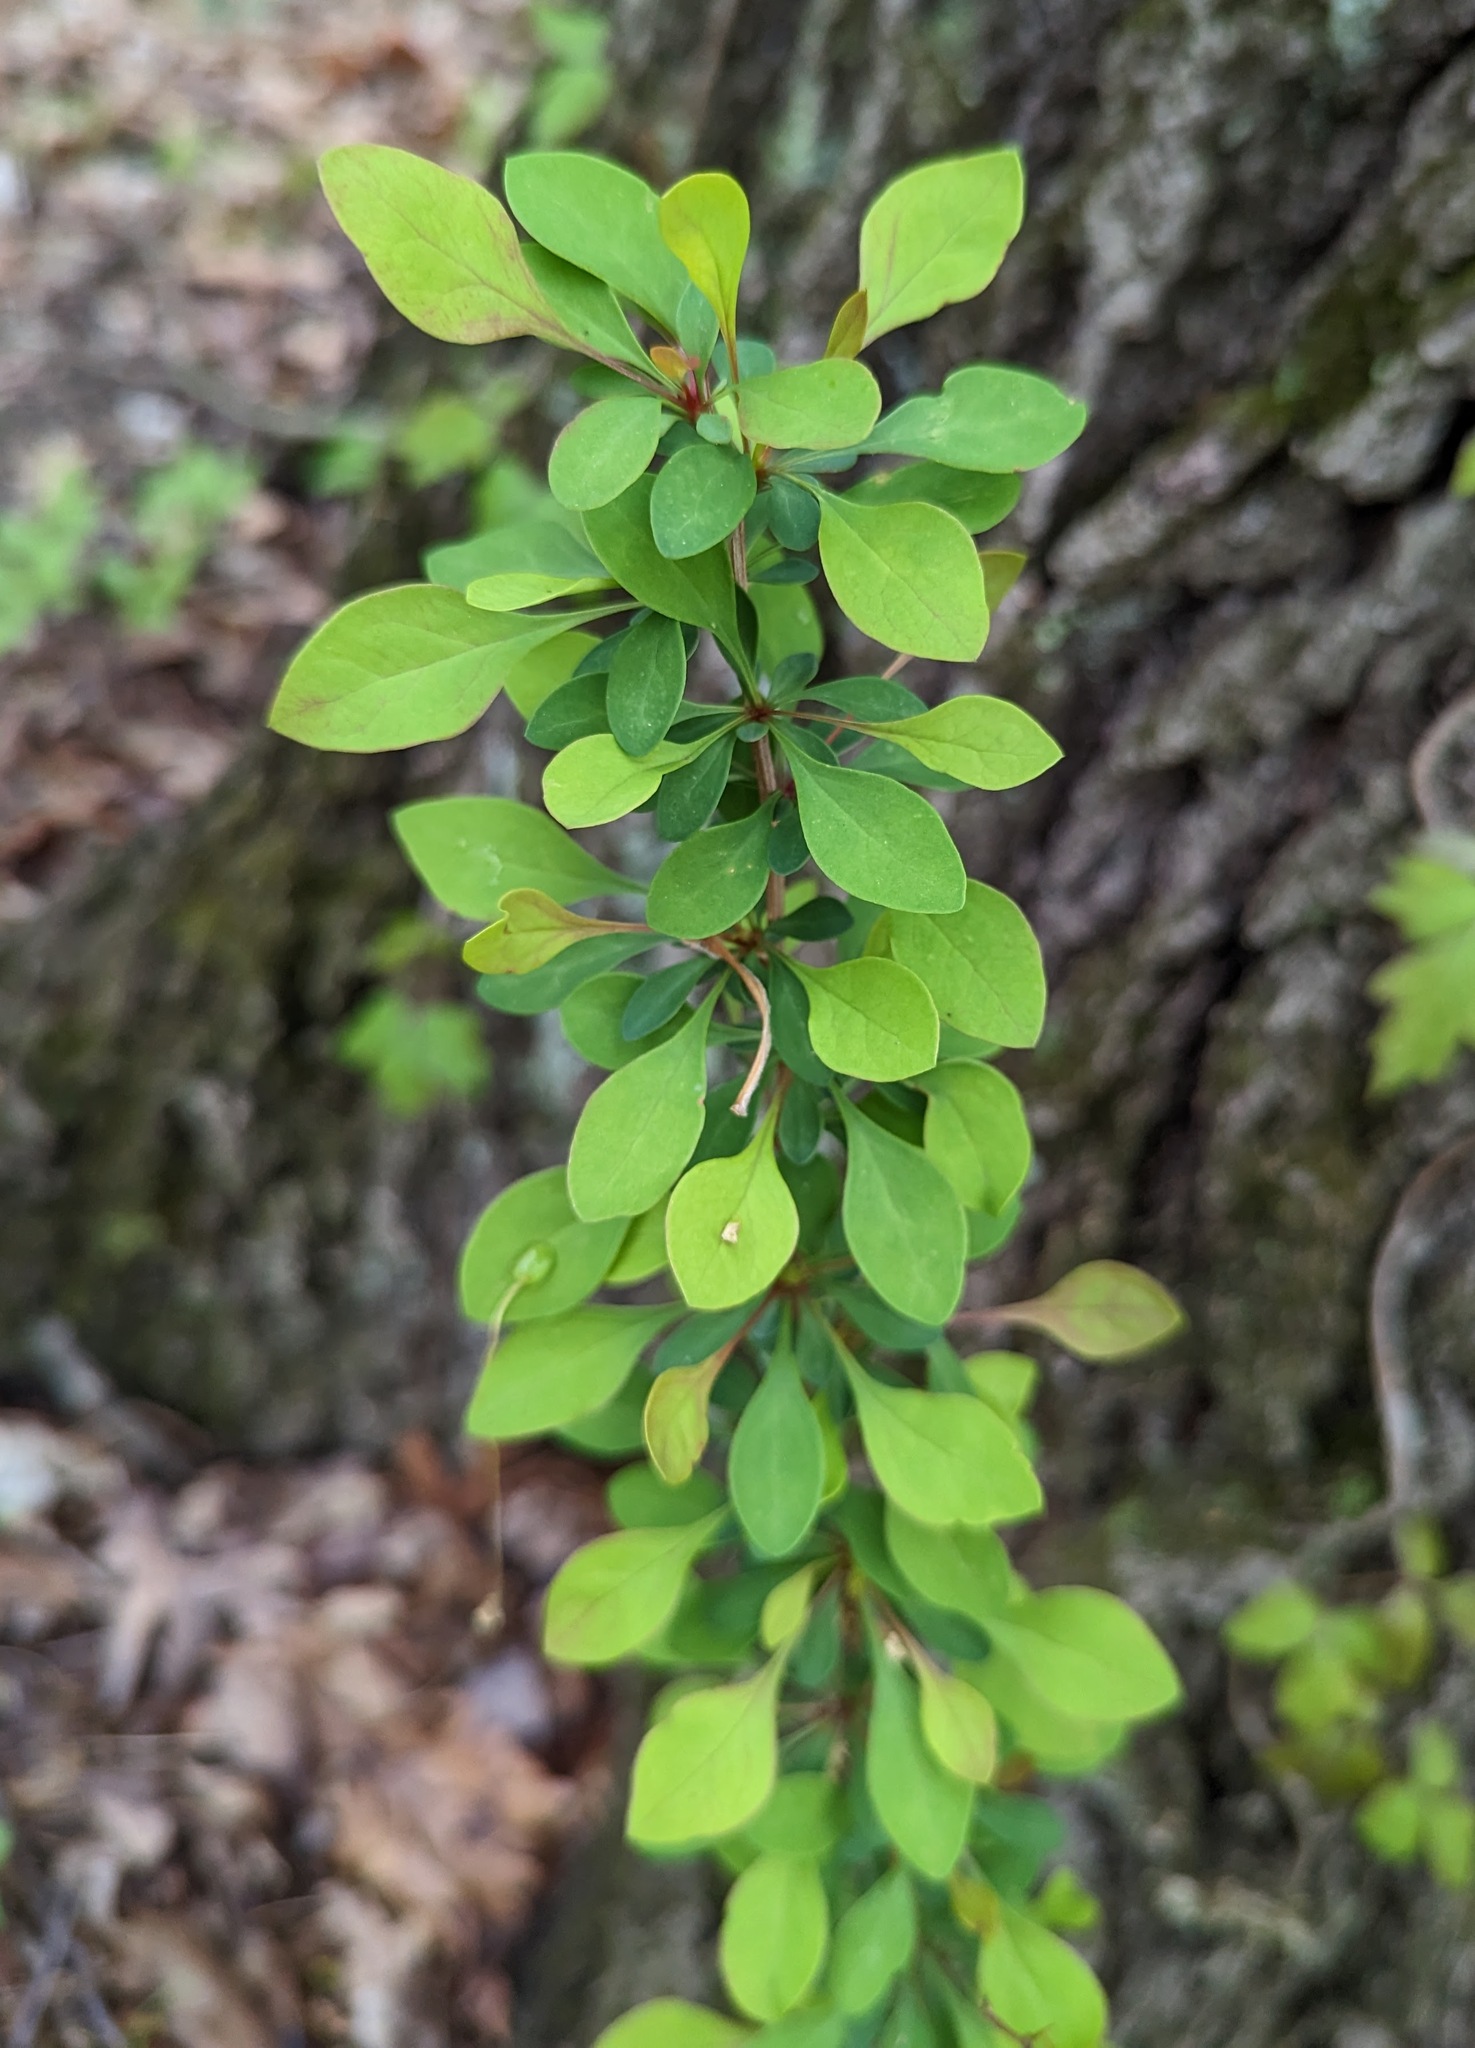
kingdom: Plantae
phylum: Tracheophyta
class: Magnoliopsida
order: Ranunculales
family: Berberidaceae
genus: Berberis
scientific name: Berberis thunbergii
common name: Japanese barberry
